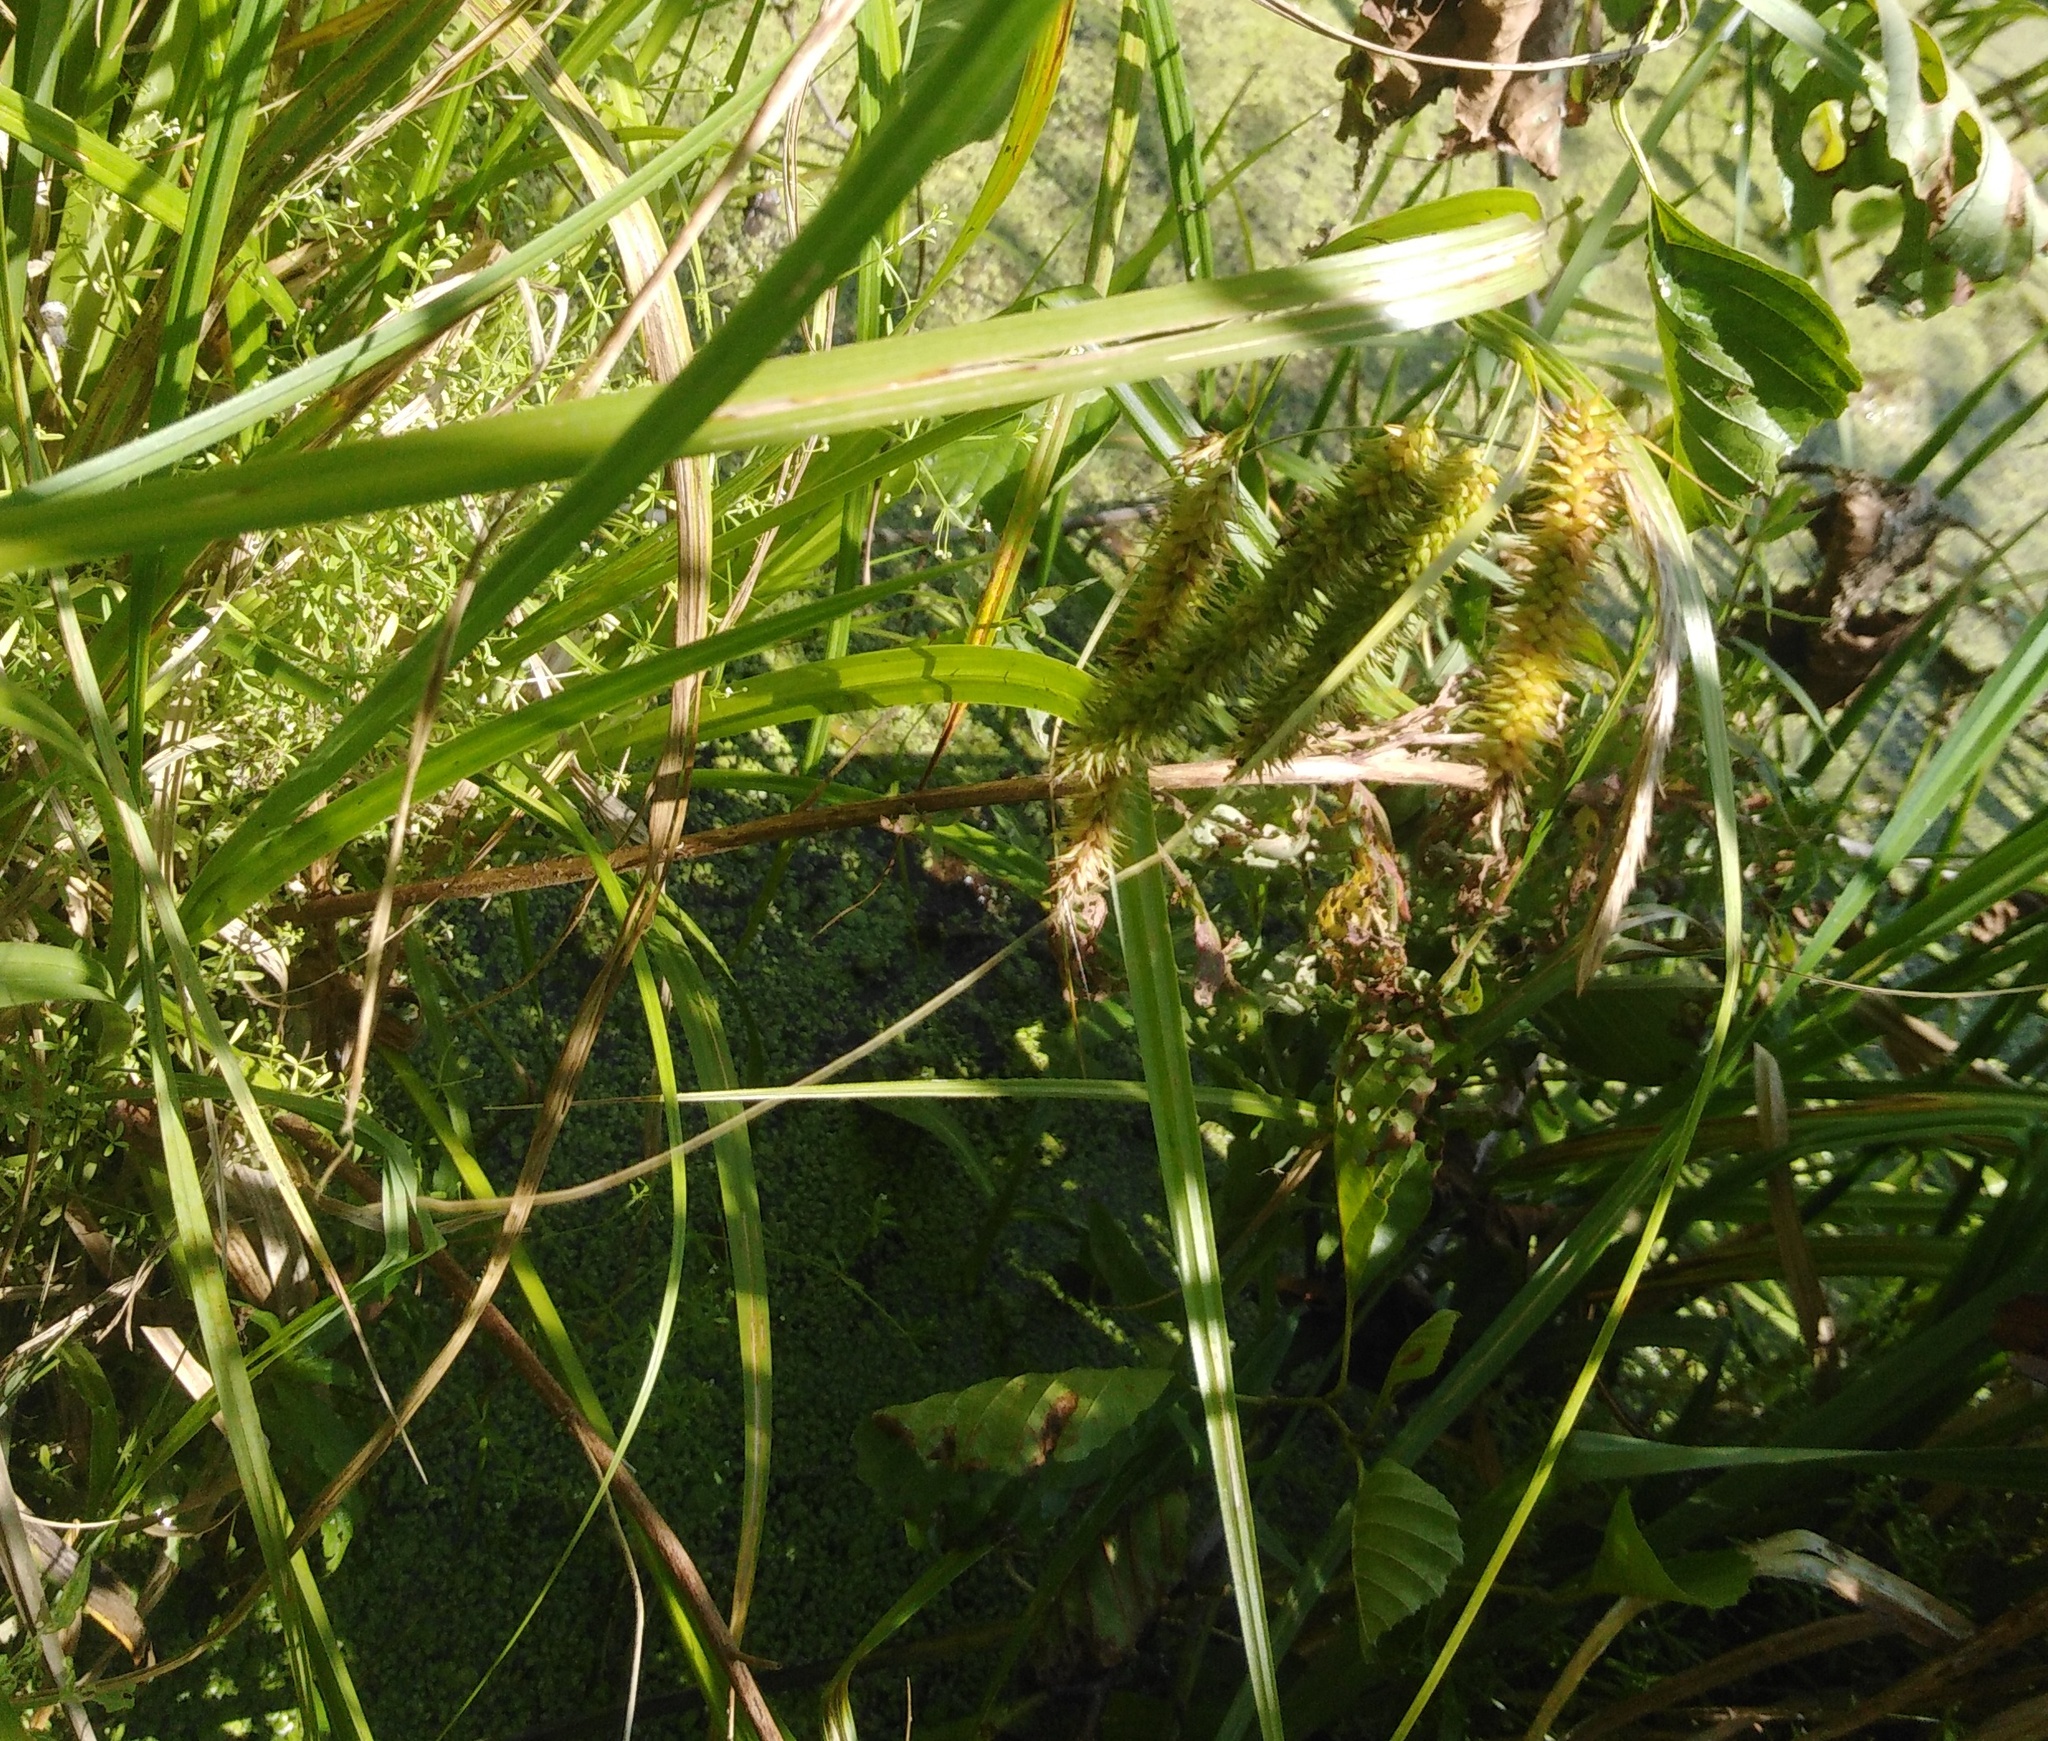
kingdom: Plantae
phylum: Tracheophyta
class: Liliopsida
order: Poales
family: Cyperaceae
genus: Carex
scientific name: Carex pseudocyperus
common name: Cyperus sedge
